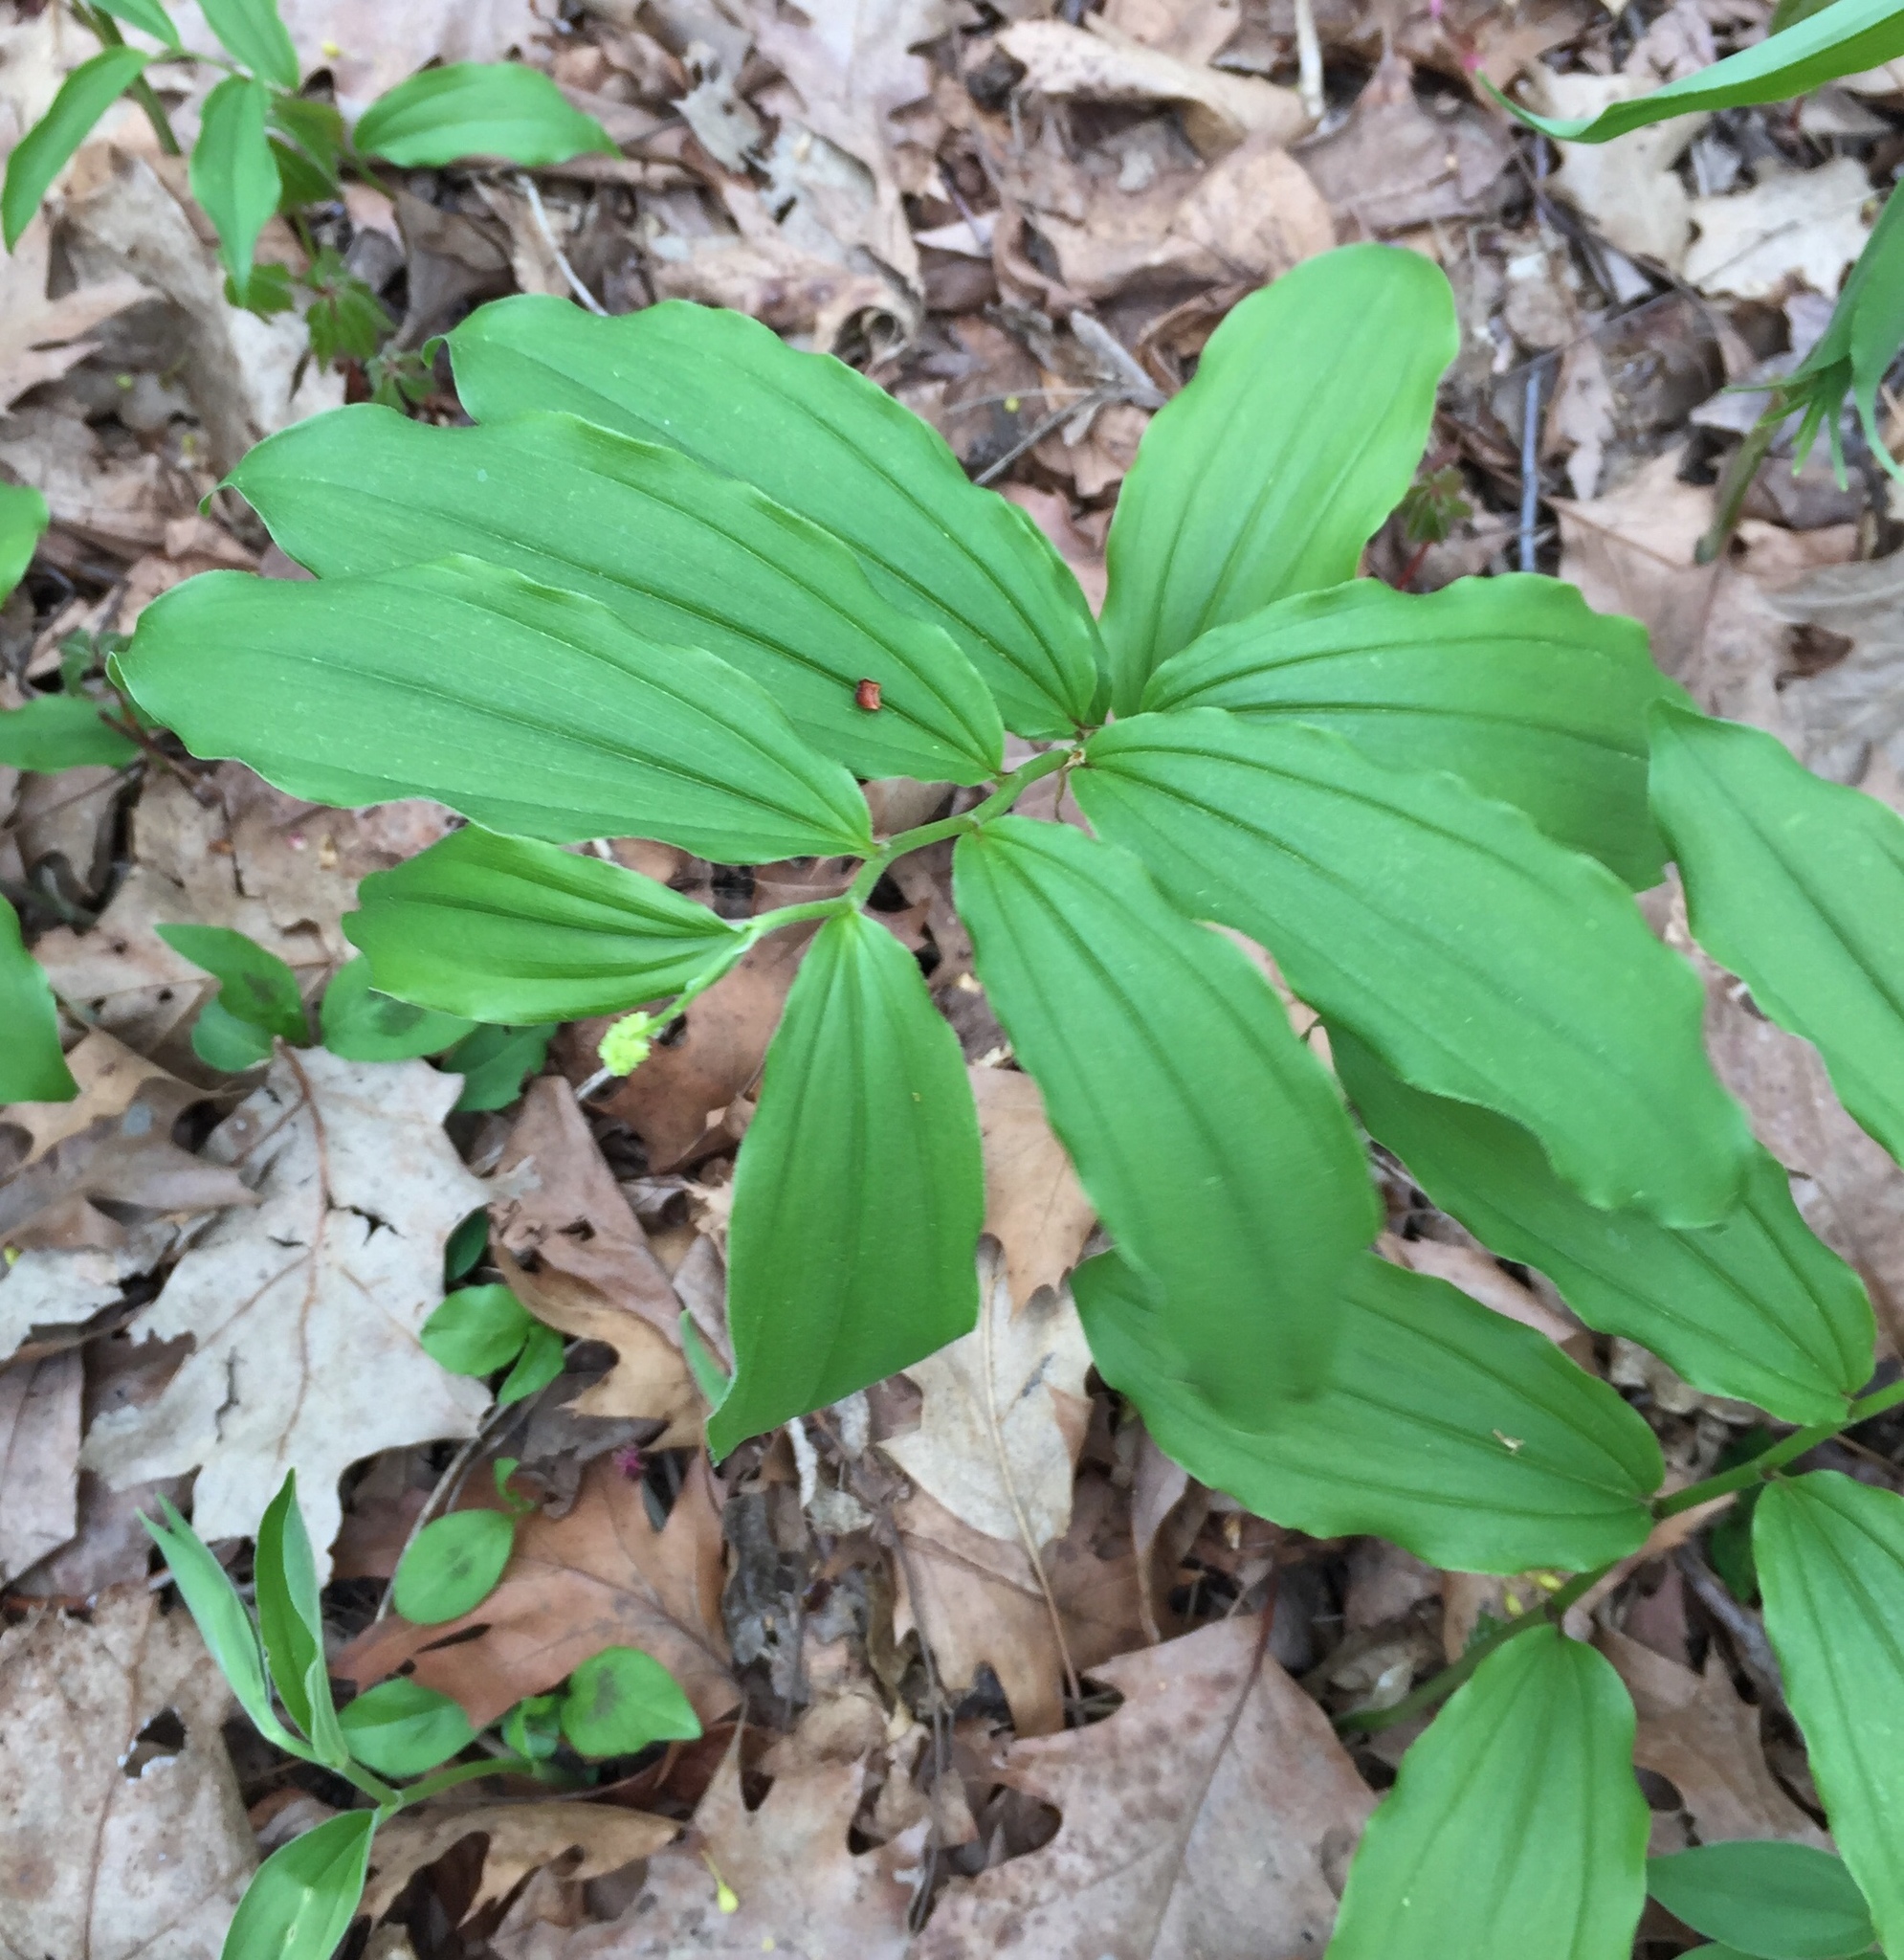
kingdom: Plantae
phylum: Tracheophyta
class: Liliopsida
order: Asparagales
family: Asparagaceae
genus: Maianthemum
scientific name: Maianthemum racemosum
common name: False spikenard
